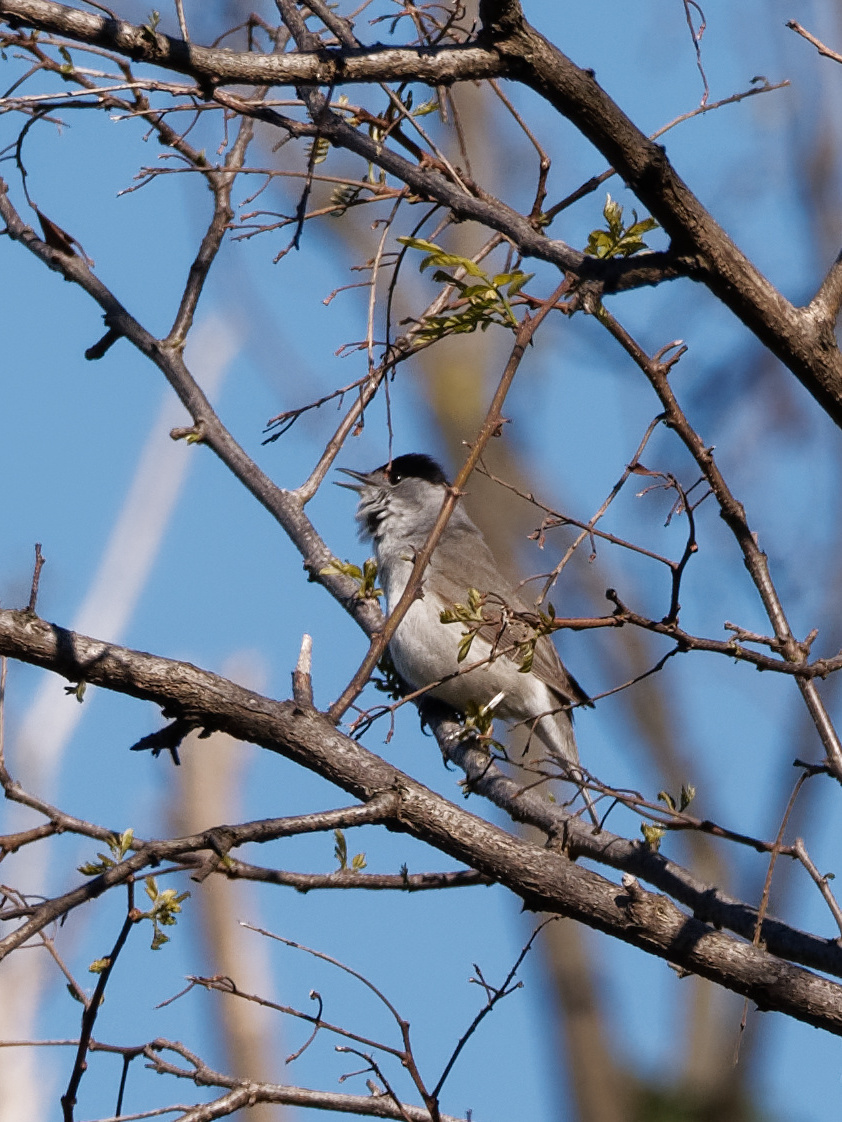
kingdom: Animalia
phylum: Chordata
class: Aves
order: Passeriformes
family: Sylviidae
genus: Sylvia
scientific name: Sylvia atricapilla
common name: Eurasian blackcap
